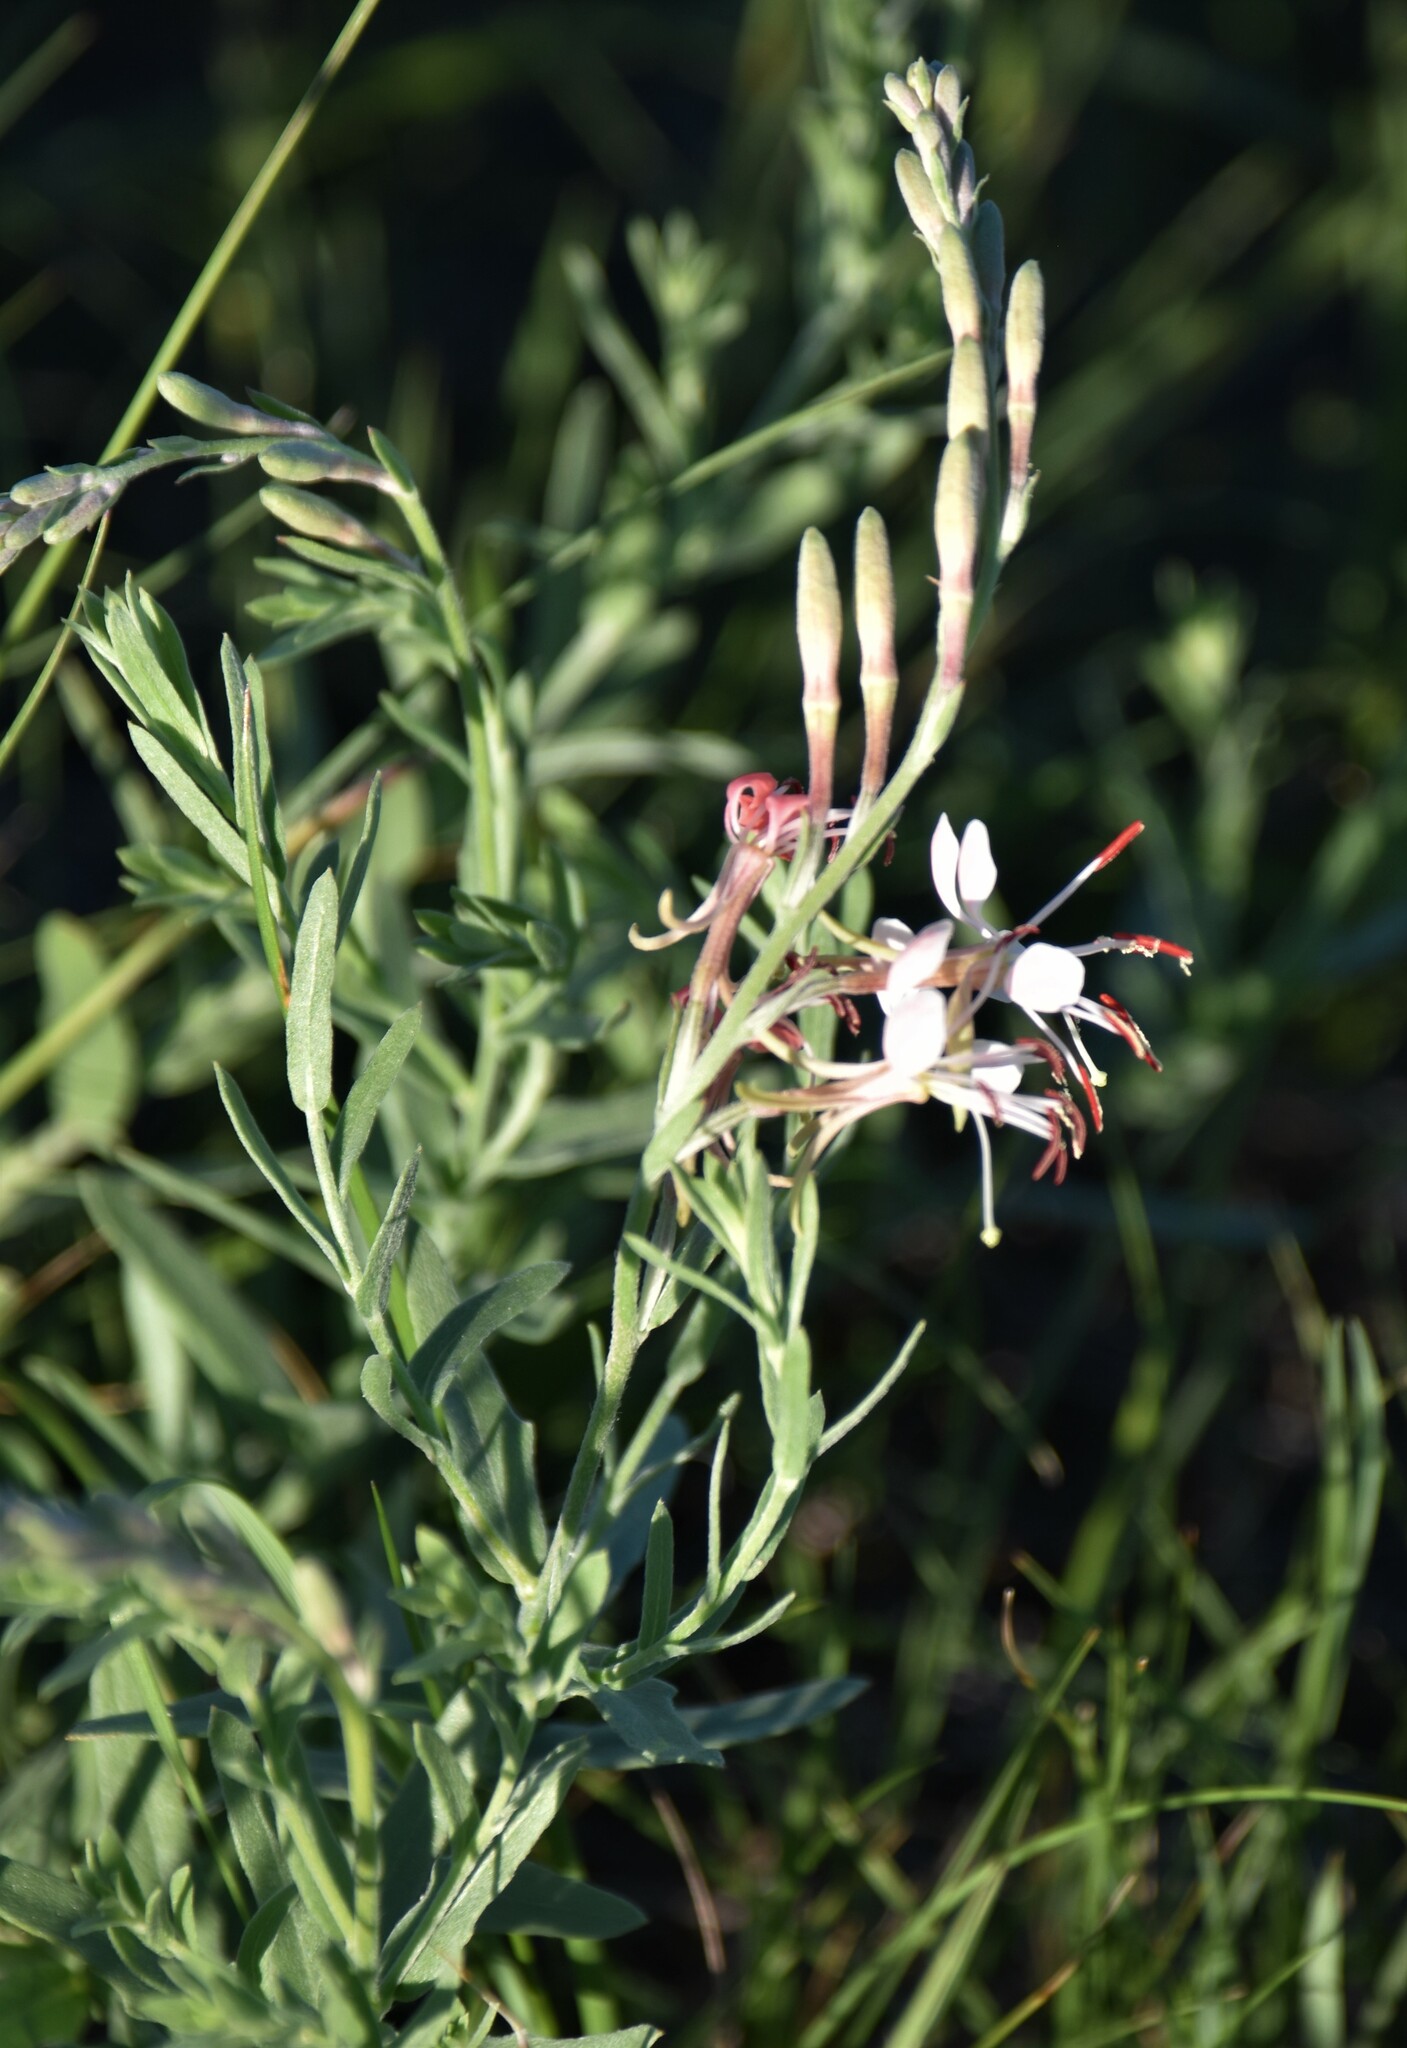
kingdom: Plantae
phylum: Tracheophyta
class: Magnoliopsida
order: Myrtales
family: Onagraceae
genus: Oenothera
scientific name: Oenothera suffrutescens
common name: Scarlet beeblossom
